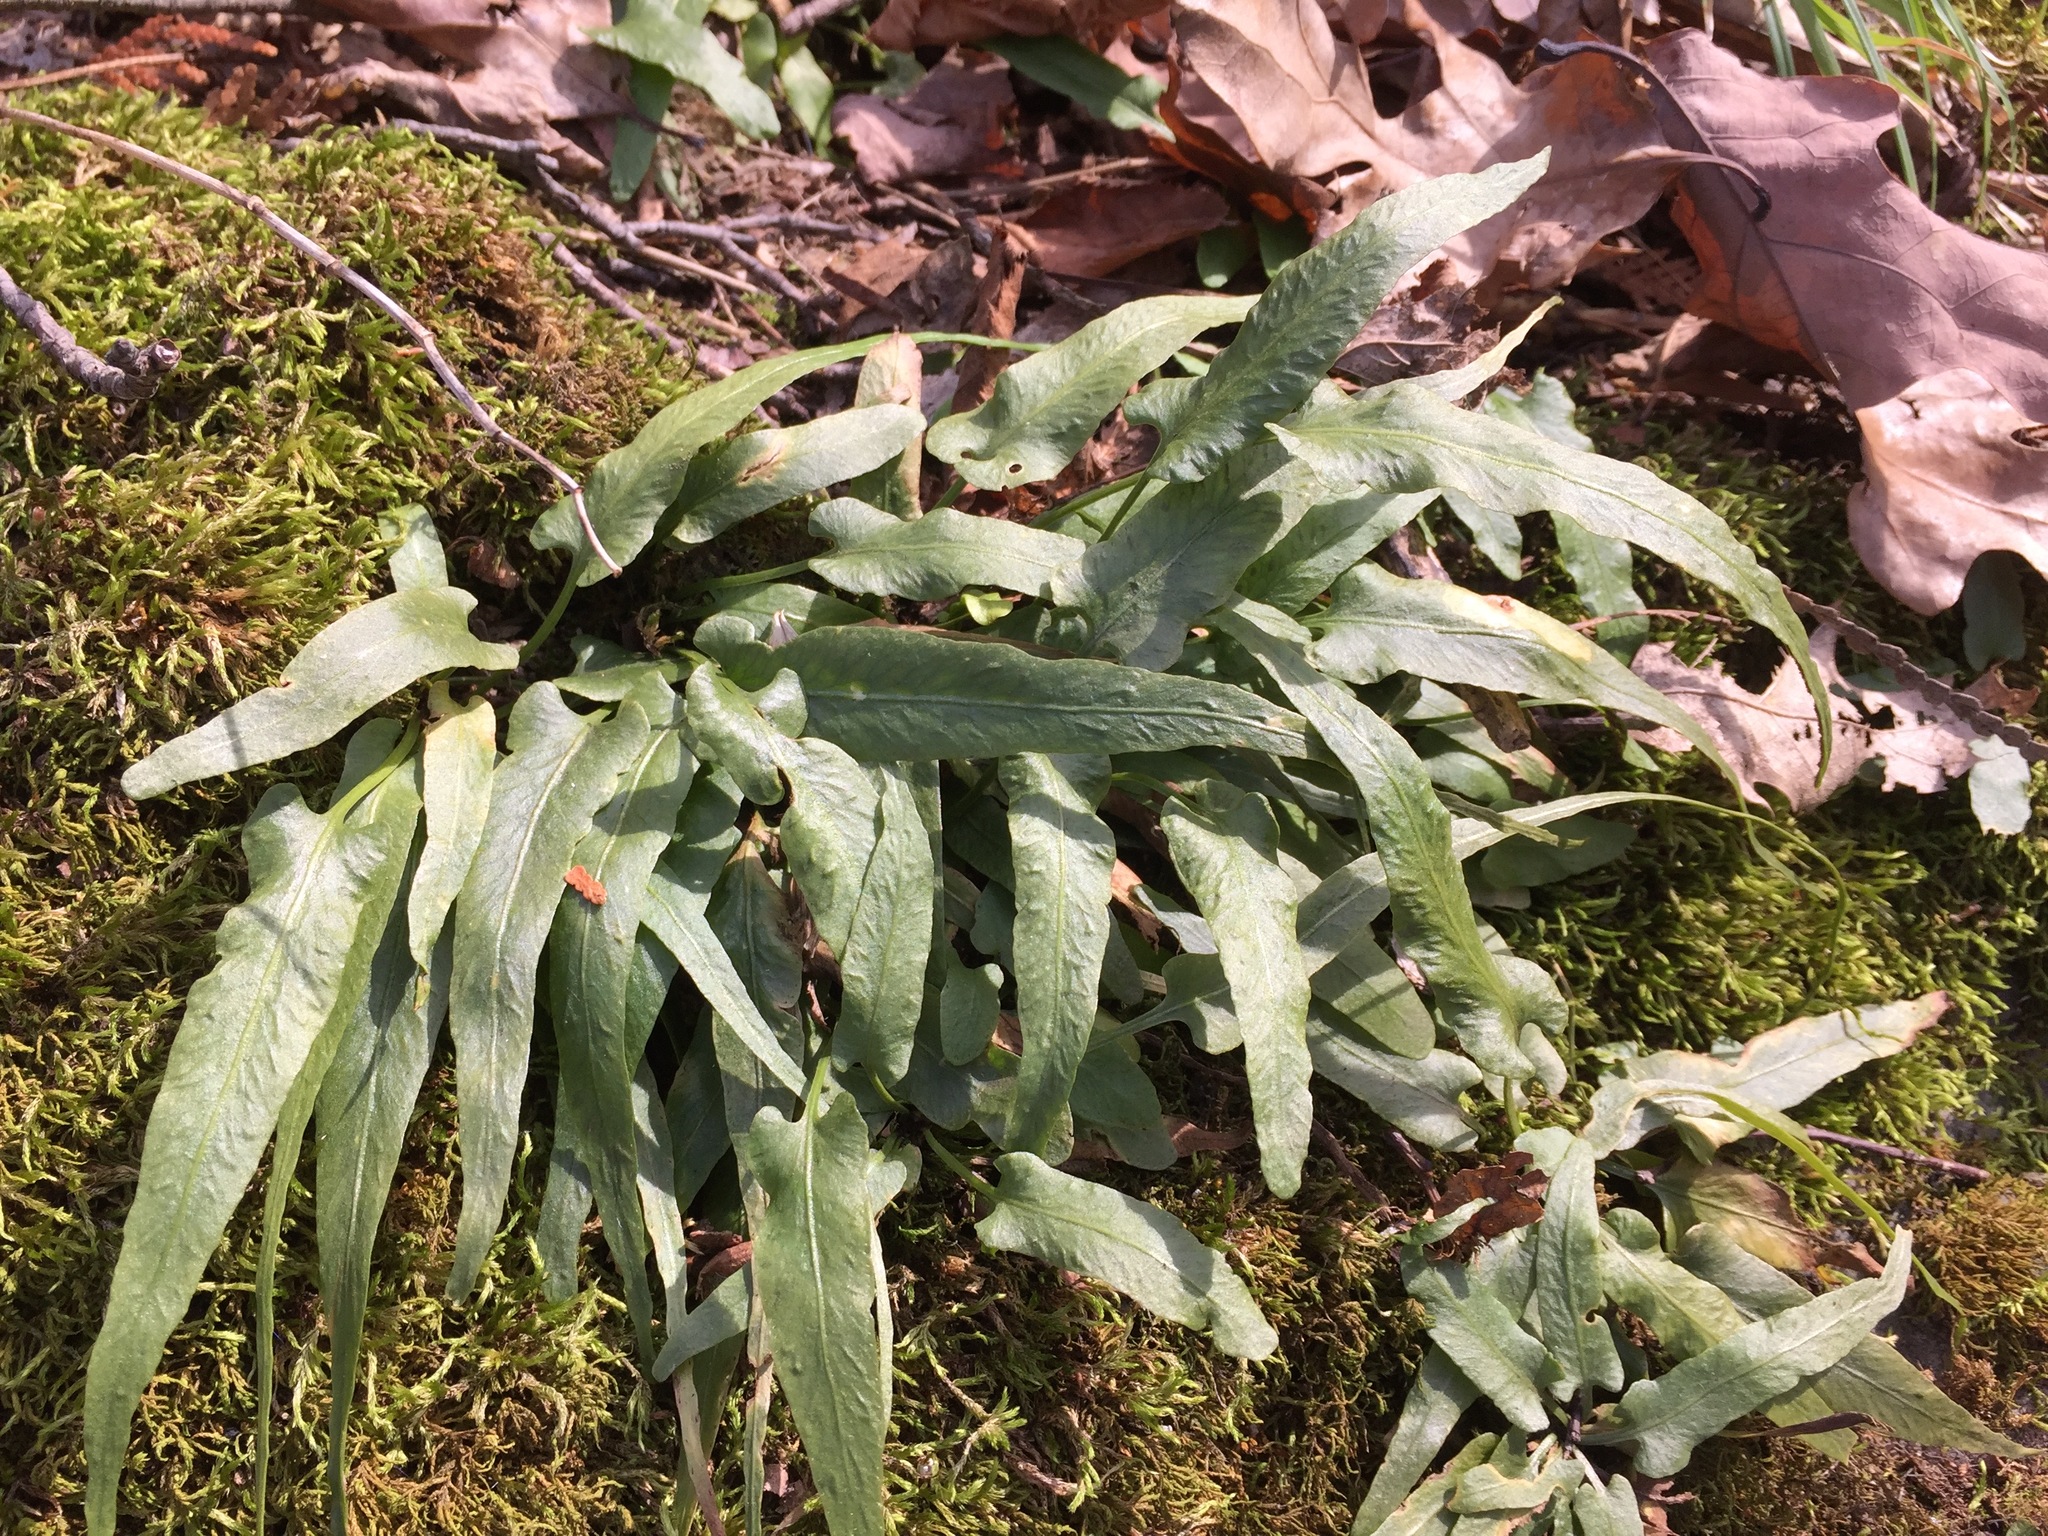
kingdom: Plantae
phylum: Tracheophyta
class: Polypodiopsida
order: Polypodiales
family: Aspleniaceae
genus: Asplenium
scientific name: Asplenium rhizophyllum
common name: Walking fern
